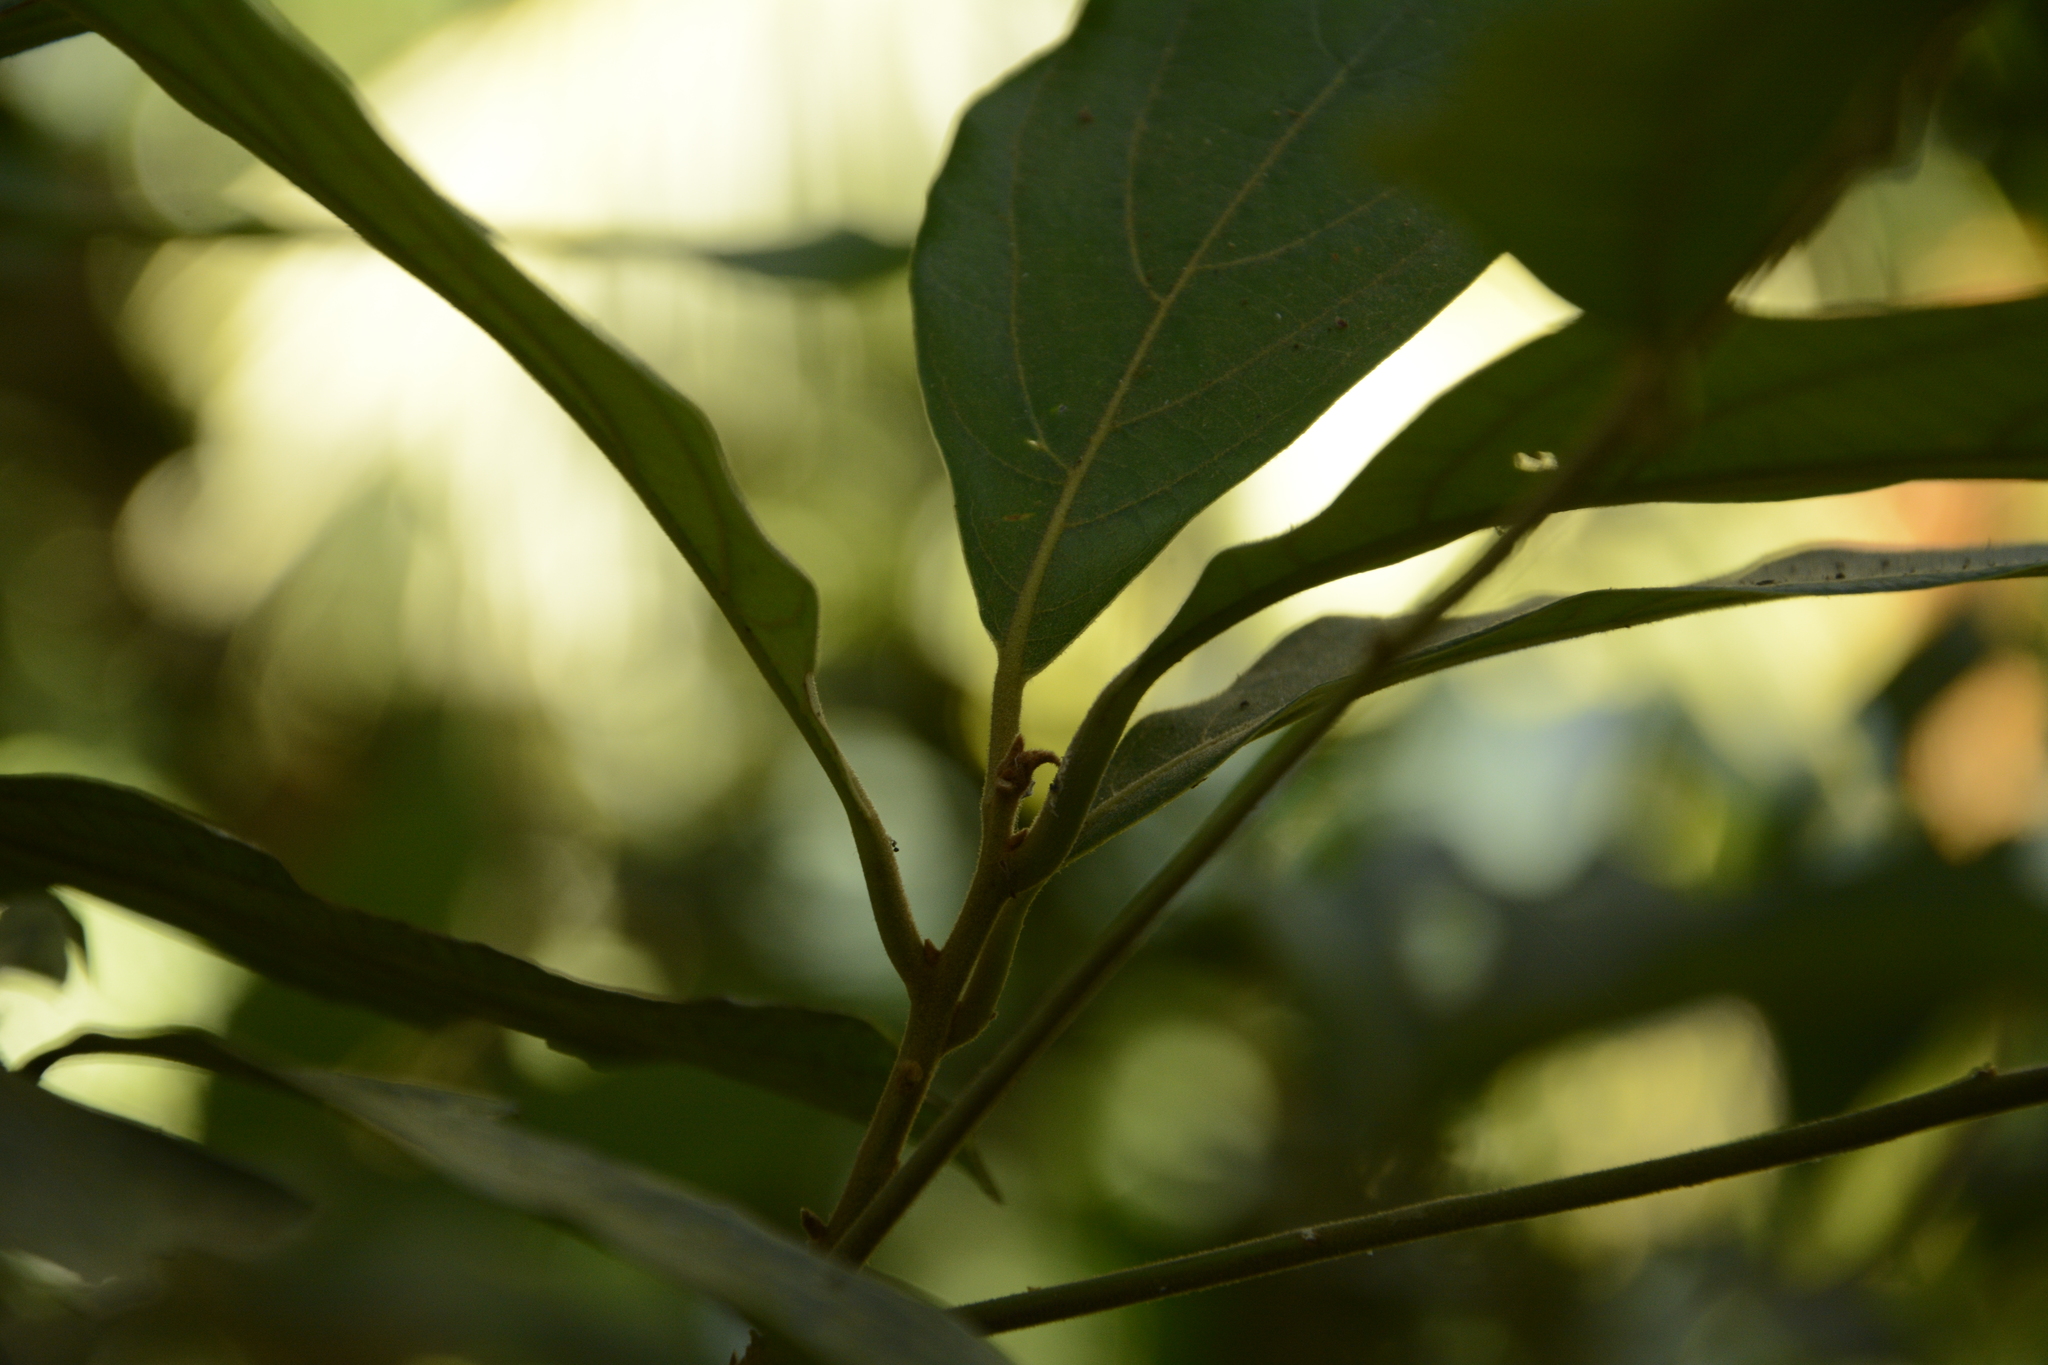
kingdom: Plantae
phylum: Tracheophyta
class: Magnoliopsida
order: Laurales
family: Lauraceae
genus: Phoebe
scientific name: Phoebe wightii
